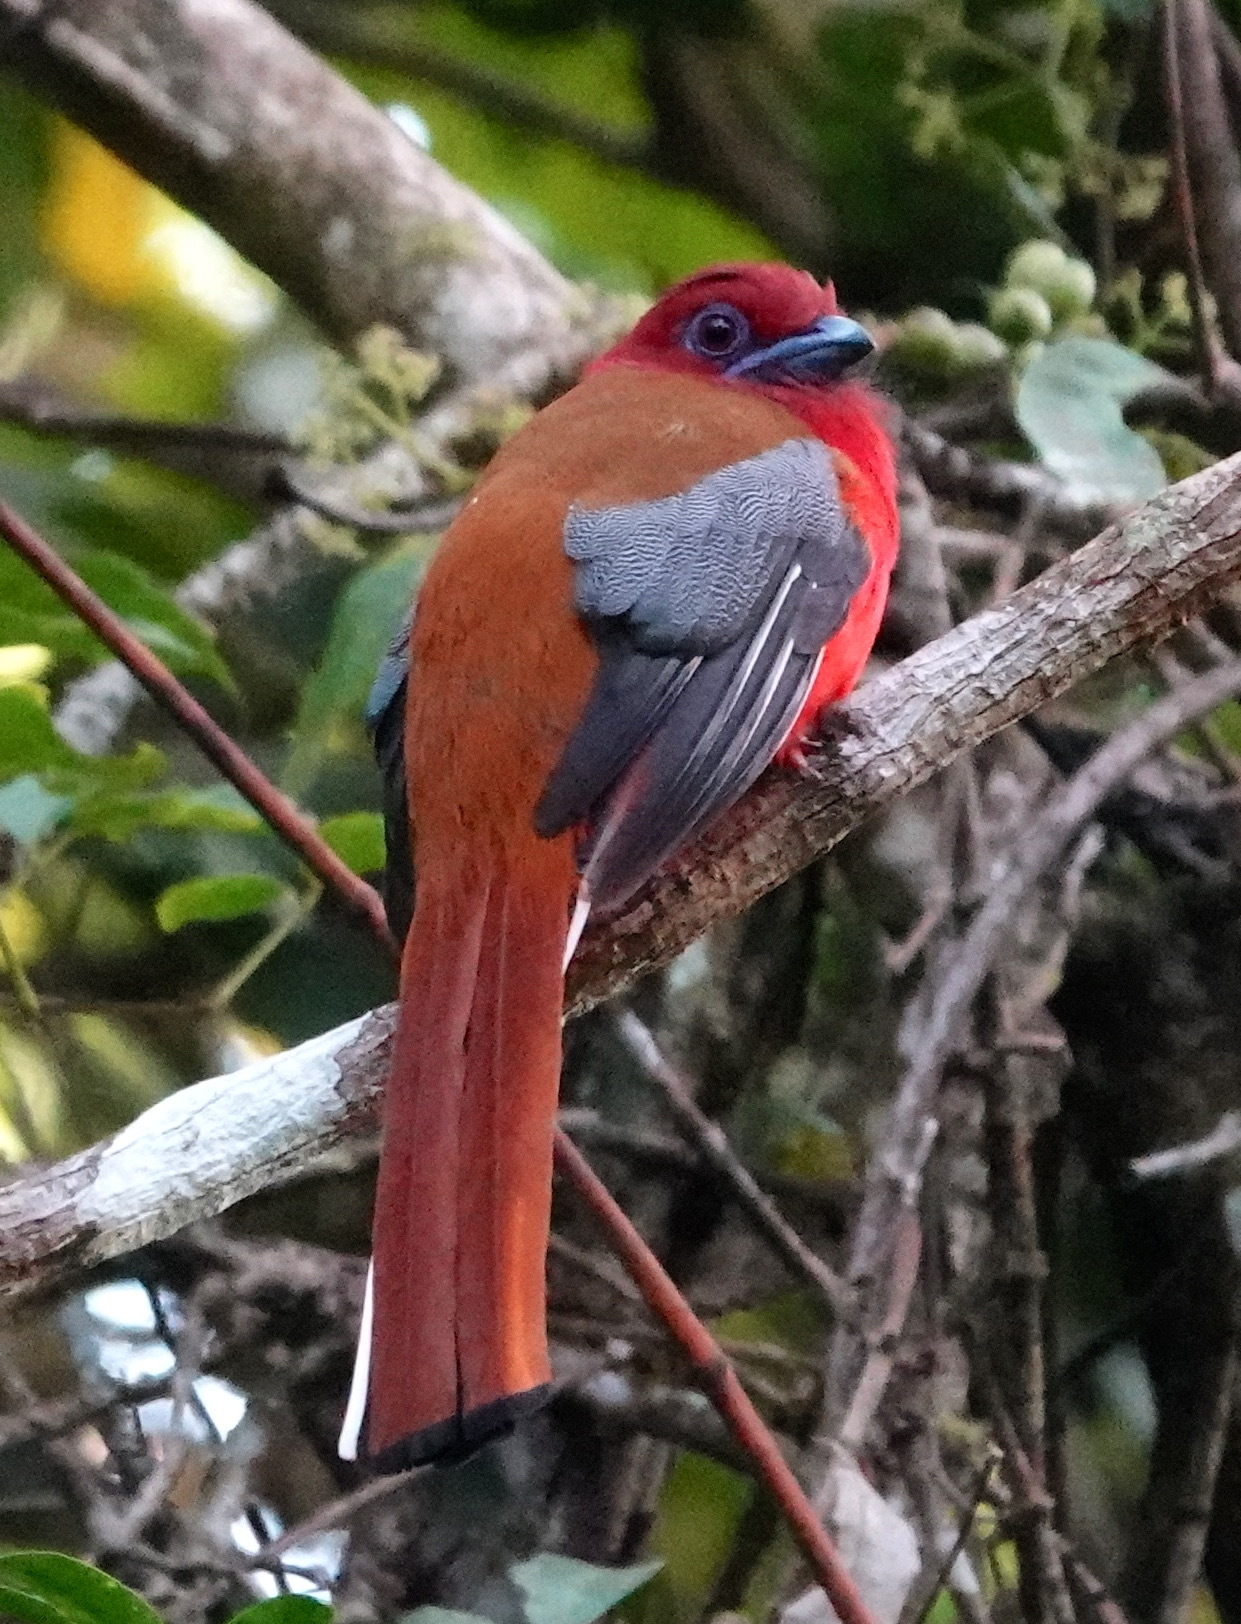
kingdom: Animalia
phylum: Chordata
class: Aves
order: Trogoniformes
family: Trogonidae
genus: Harpactes
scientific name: Harpactes erythrocephalus
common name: Red-headed trogon
